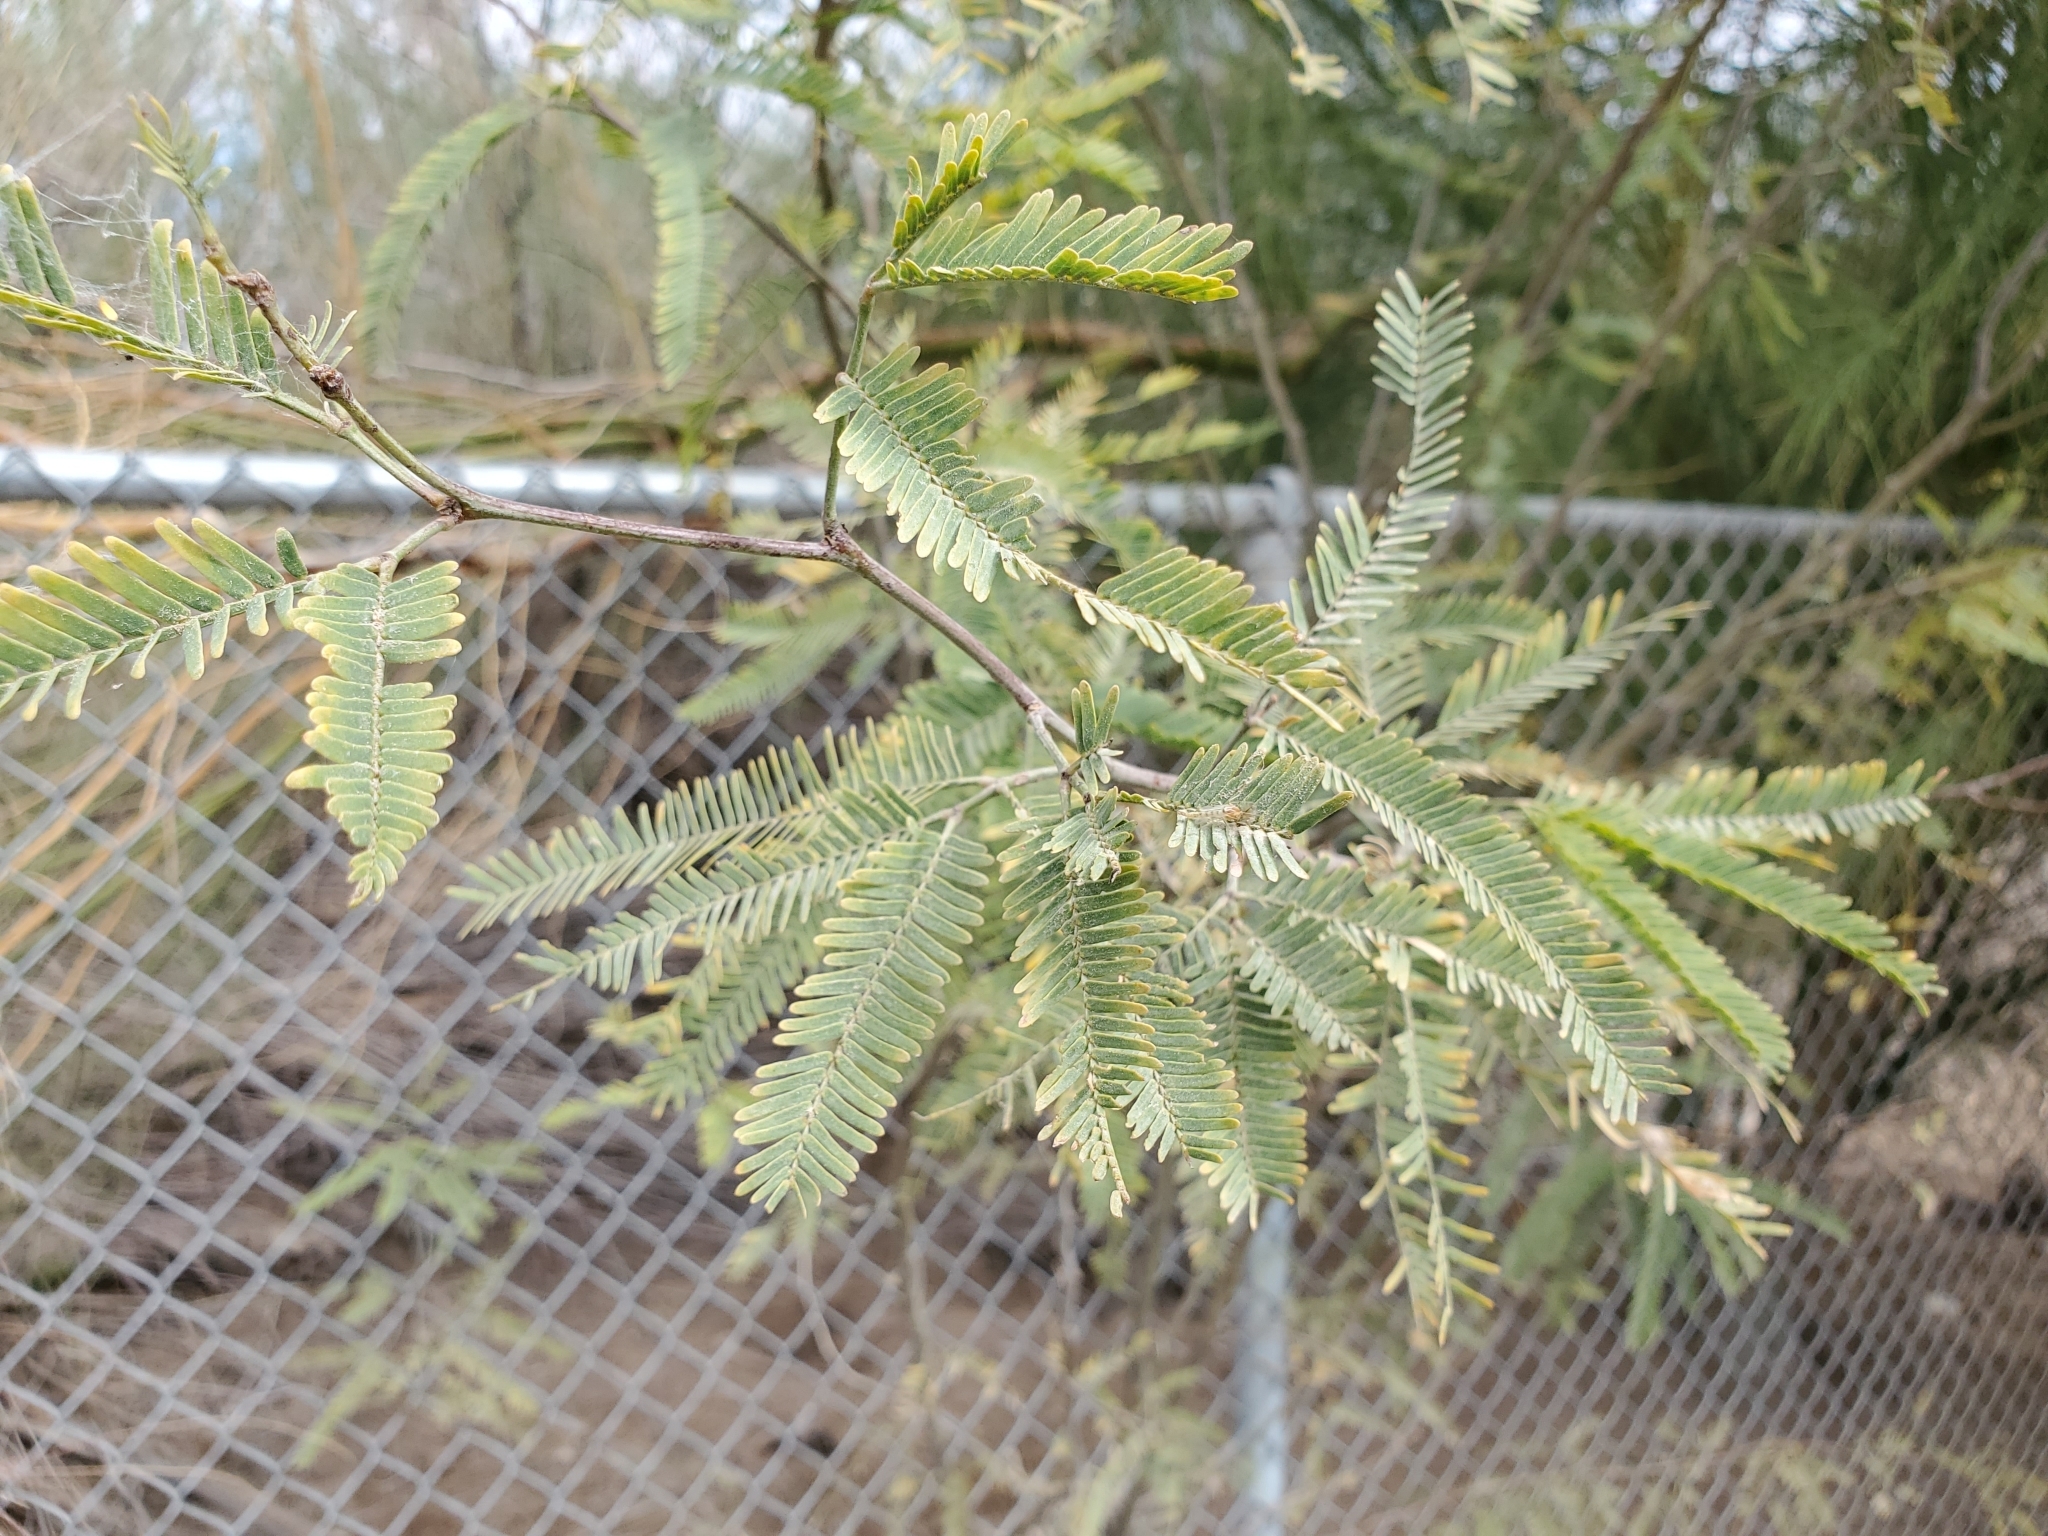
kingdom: Plantae
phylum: Tracheophyta
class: Magnoliopsida
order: Fabales
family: Fabaceae
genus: Prosopis
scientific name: Prosopis chilensis
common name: Chilean algarrobo
